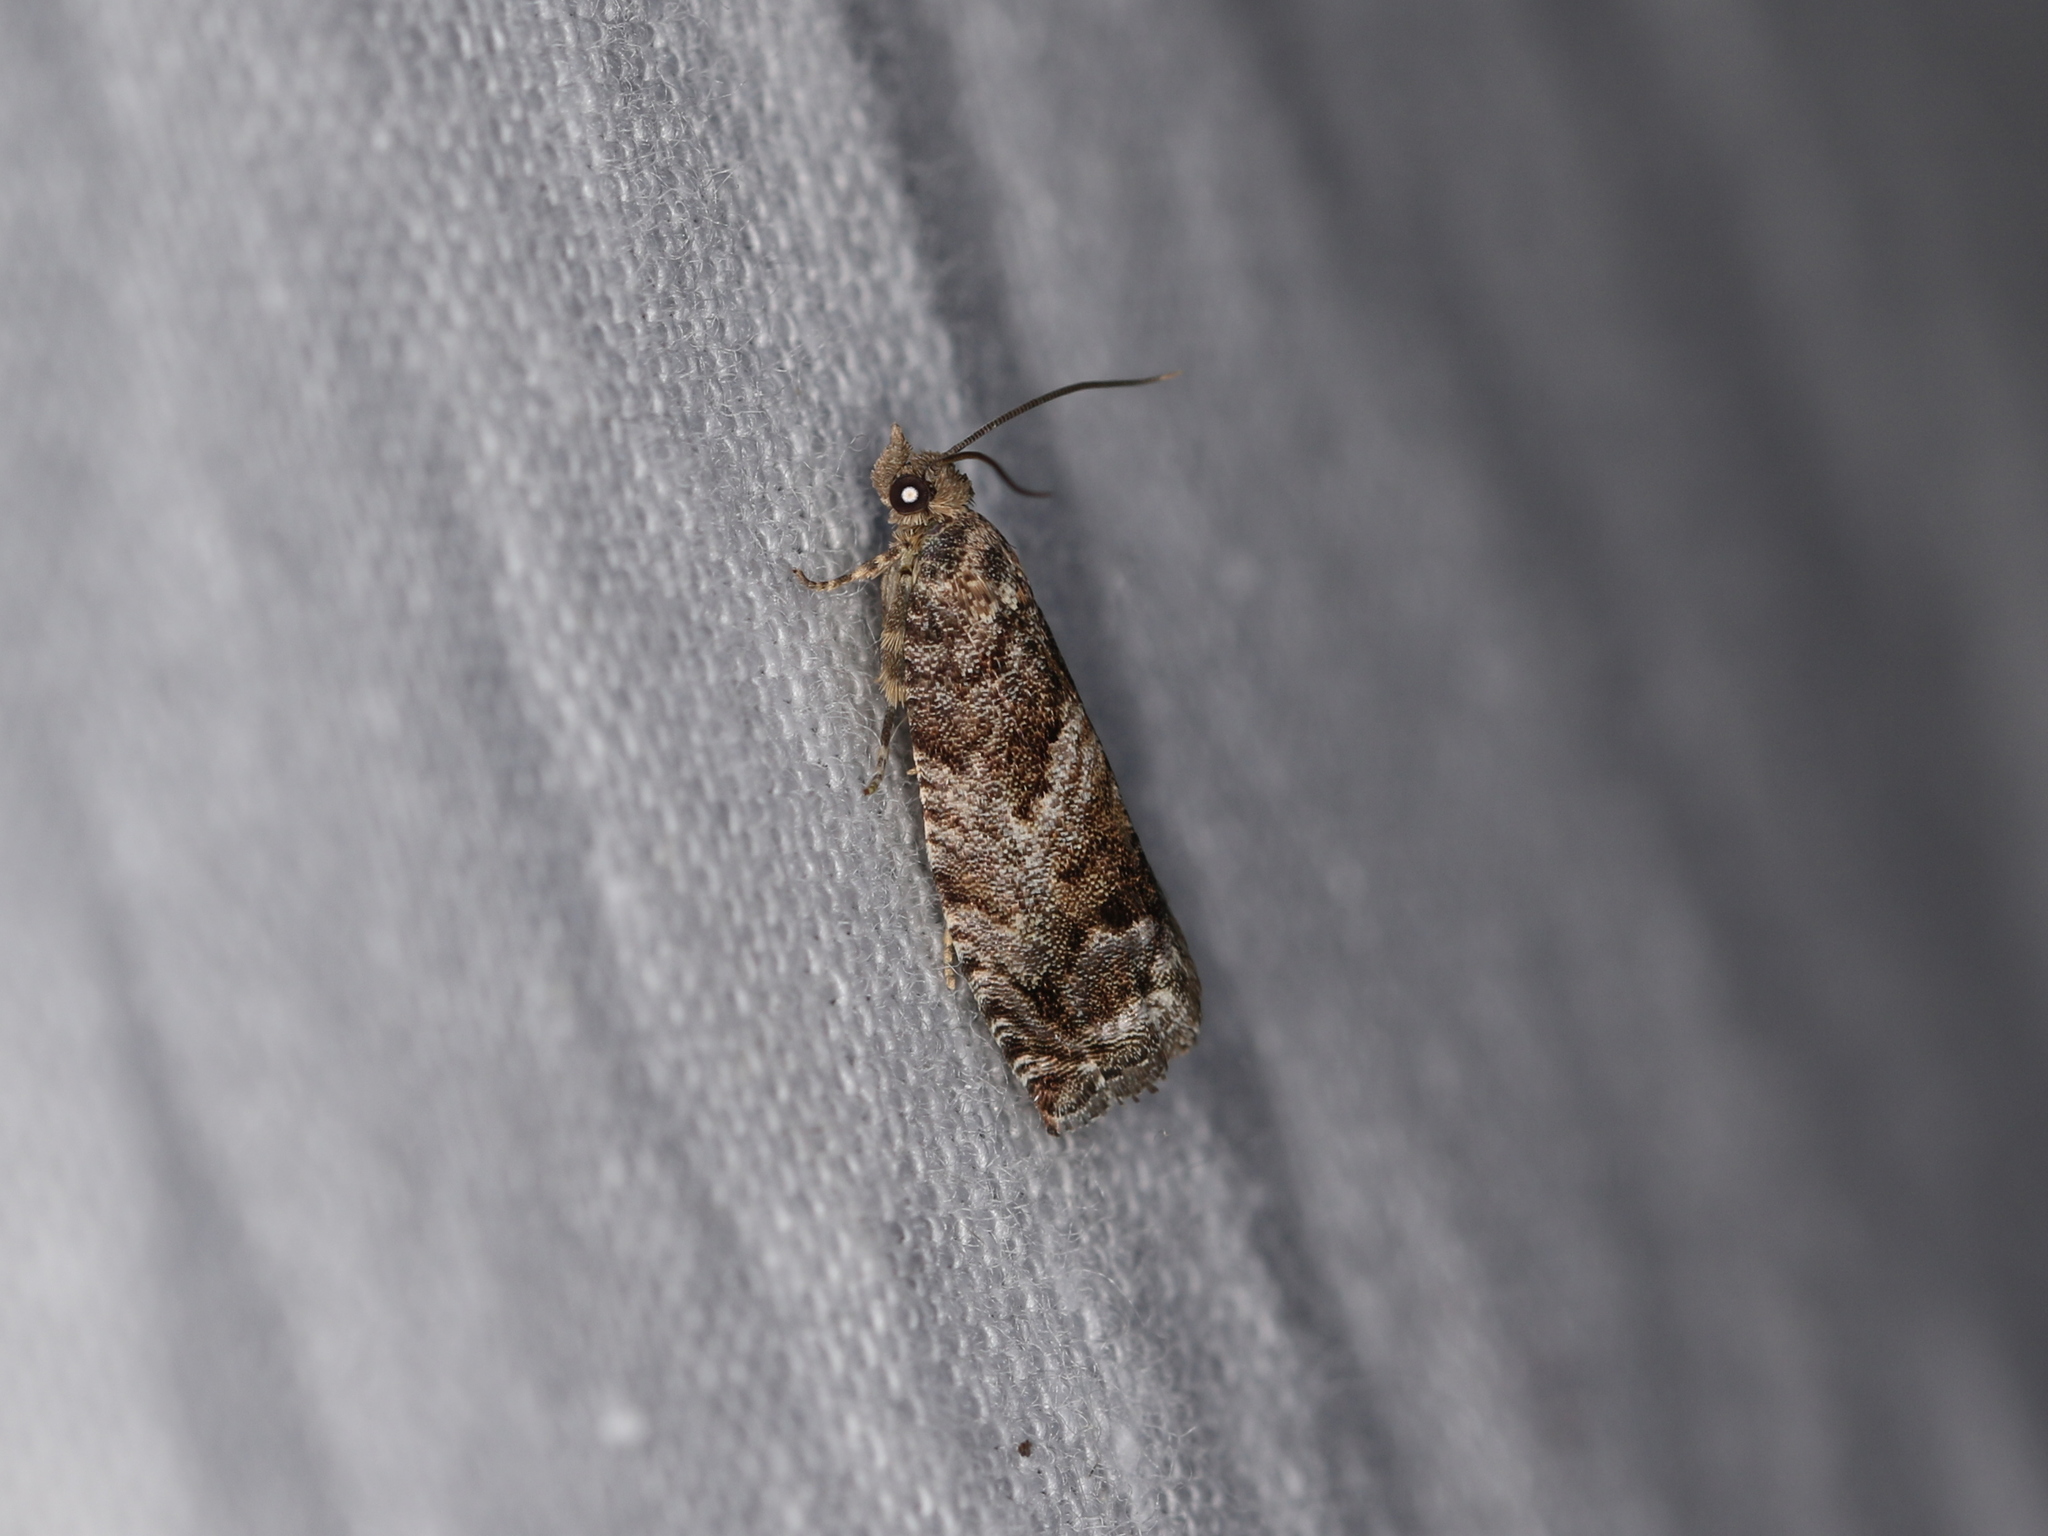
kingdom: Animalia
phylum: Arthropoda
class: Insecta
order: Lepidoptera
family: Tortricidae
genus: Cydia
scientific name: Cydia fagiglandana
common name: Large beech piercer
